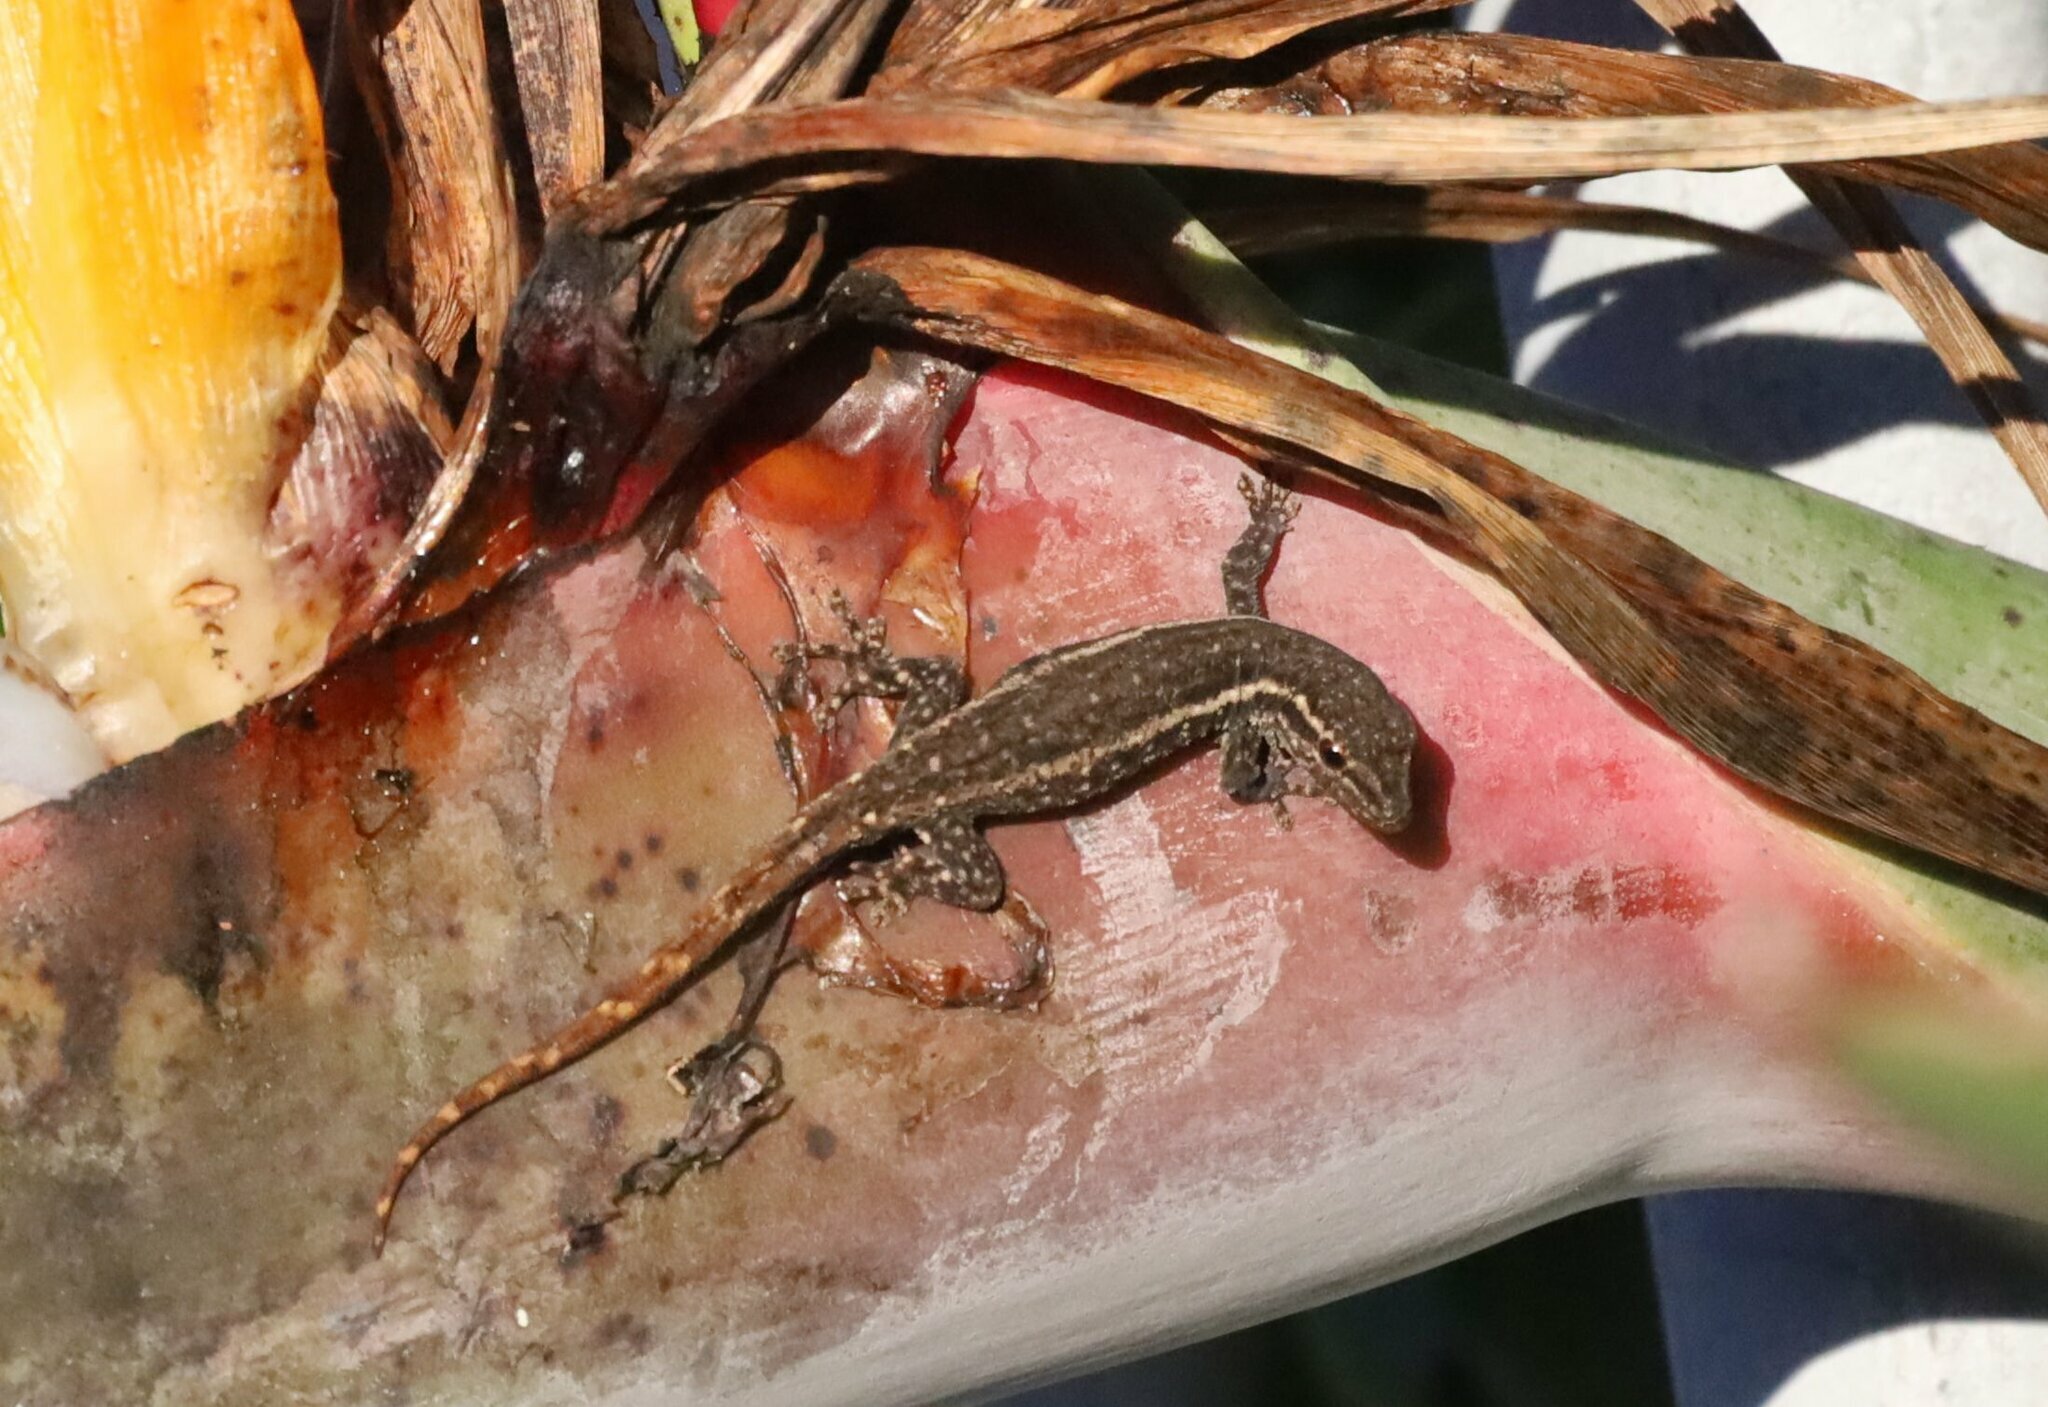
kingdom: Animalia
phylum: Chordata
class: Squamata
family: Gekkonidae
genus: Lygodactylus
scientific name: Lygodactylus capensis
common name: Cape dwarf gecko
